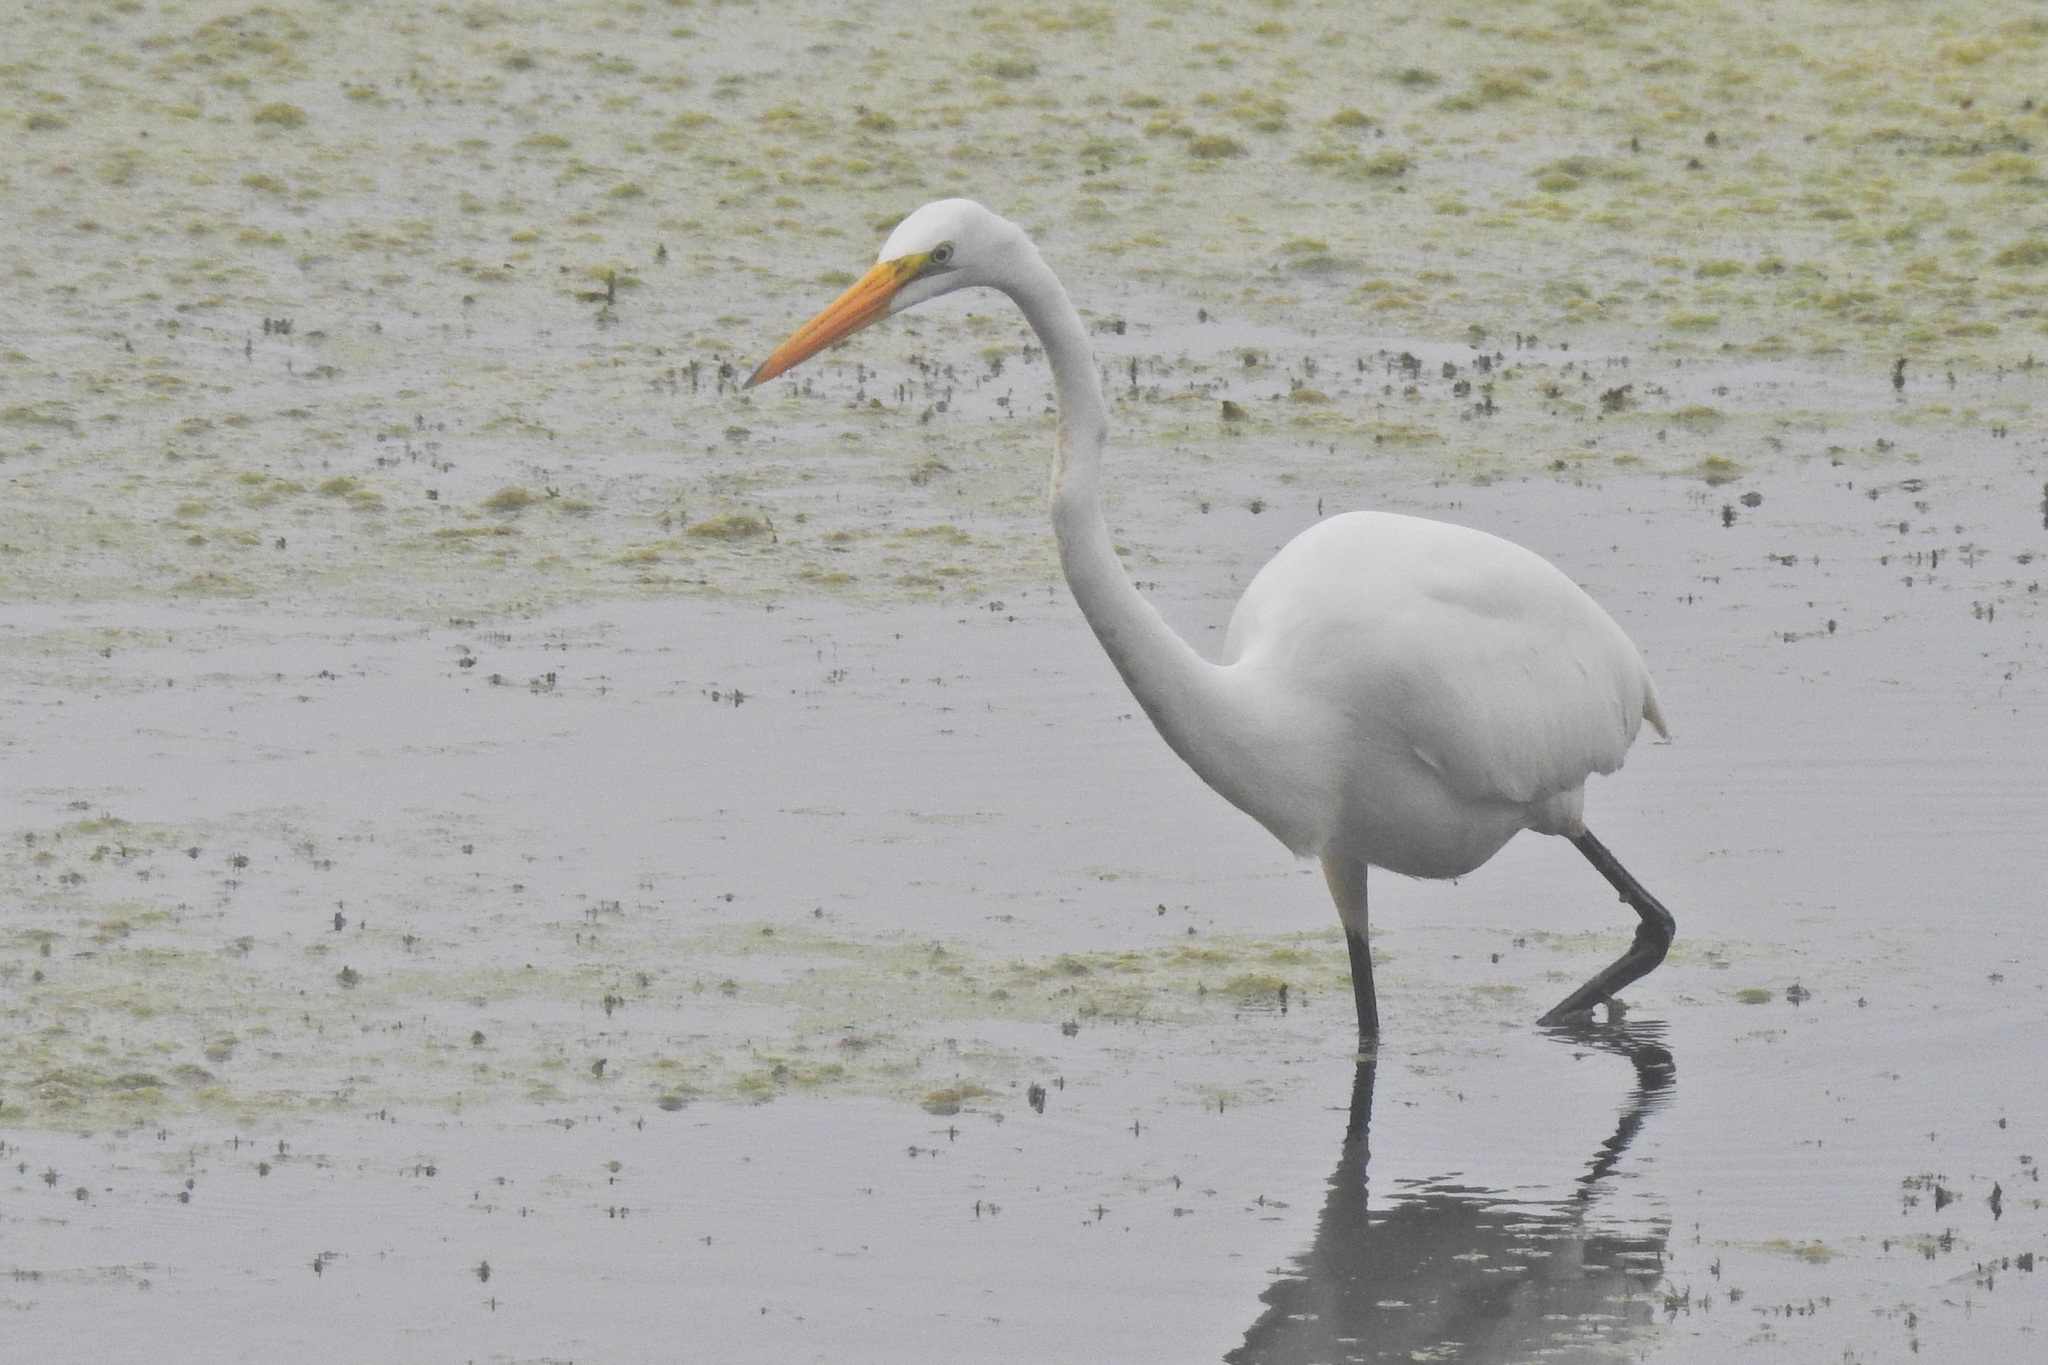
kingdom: Animalia
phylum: Chordata
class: Aves
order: Pelecaniformes
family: Ardeidae
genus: Ardea
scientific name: Ardea alba
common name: Great egret
